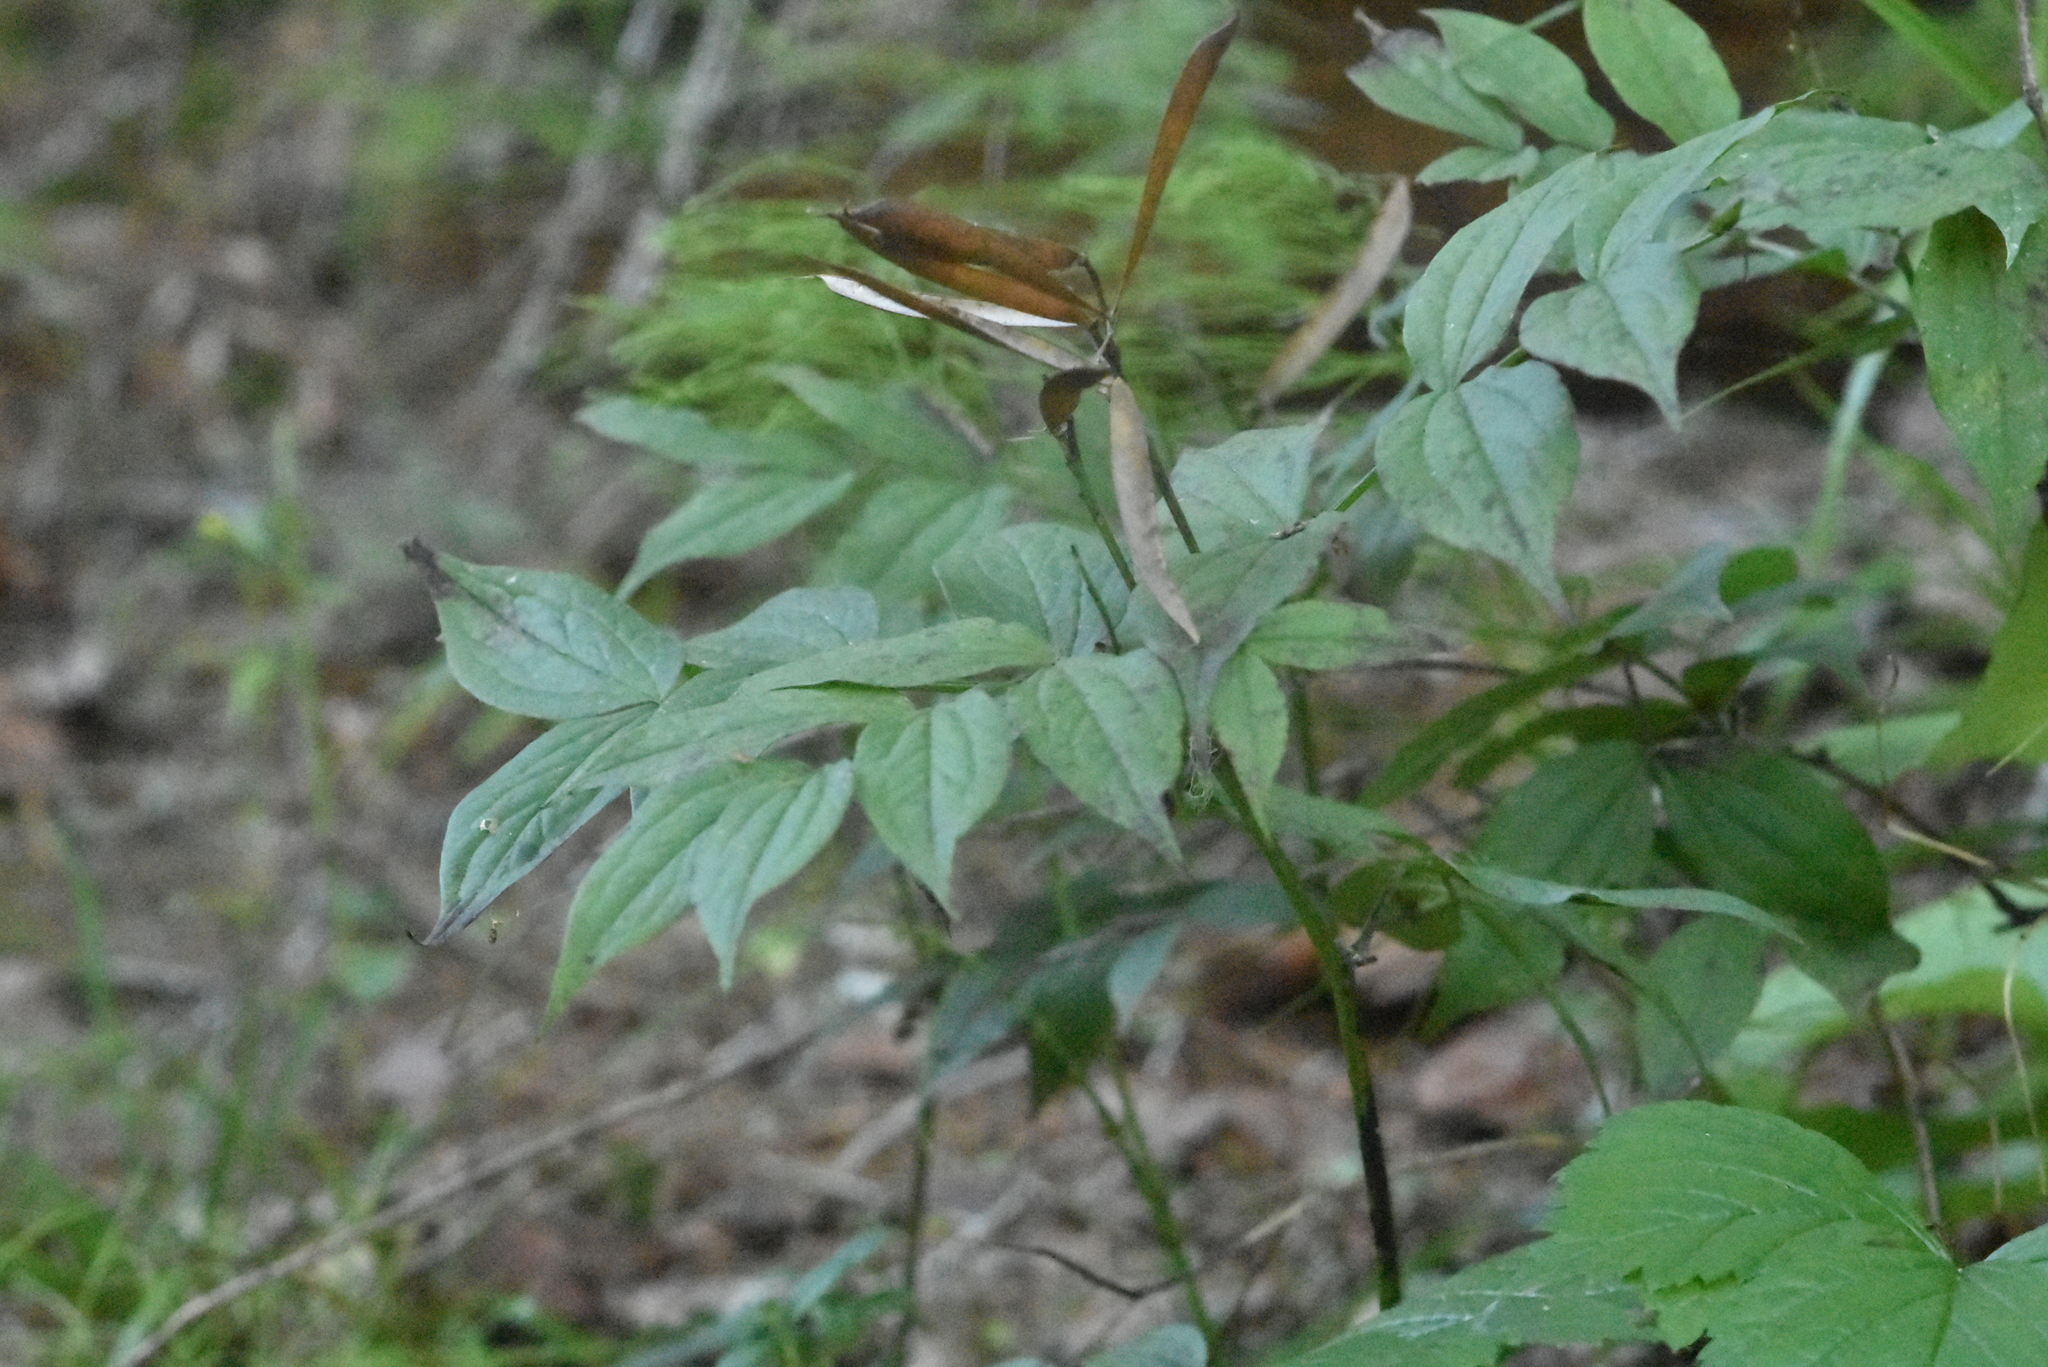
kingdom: Plantae
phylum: Tracheophyta
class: Magnoliopsida
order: Fabales
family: Fabaceae
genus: Lathyrus
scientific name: Lathyrus vernus
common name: Spring pea
